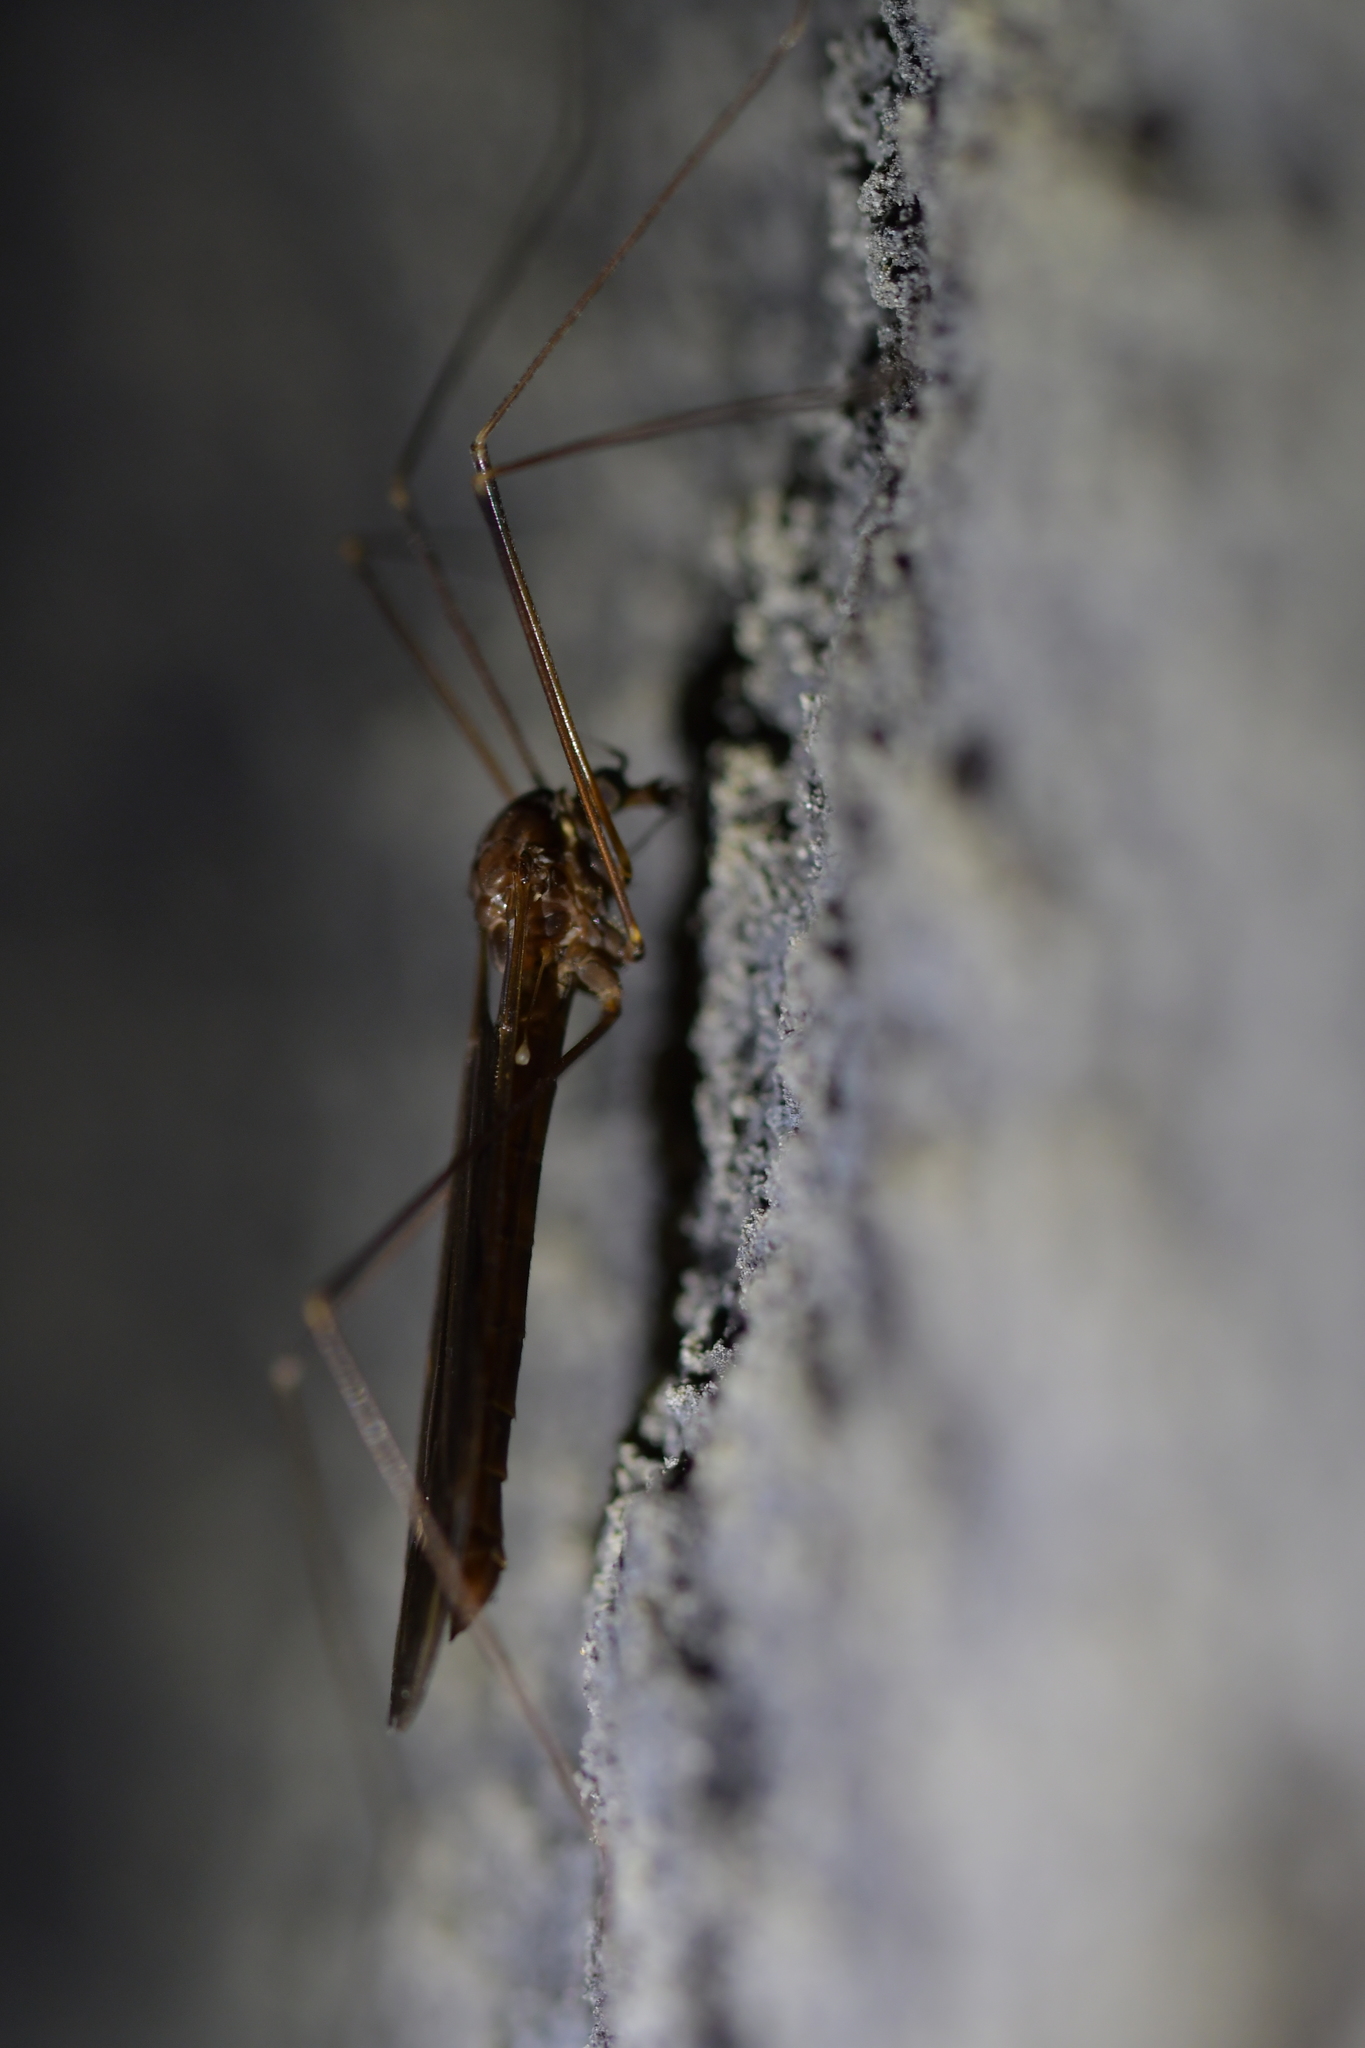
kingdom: Animalia
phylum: Arthropoda
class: Insecta
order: Diptera
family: Tipulidae
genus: Austrotipula
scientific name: Austrotipula hudsoni
